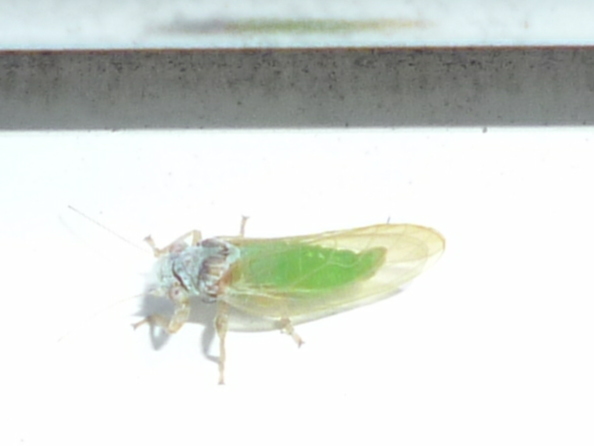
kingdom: Animalia
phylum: Arthropoda
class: Insecta
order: Hemiptera
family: Psyllidae
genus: Psylla
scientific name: Psylla buxi
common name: Boxwood psyllid
